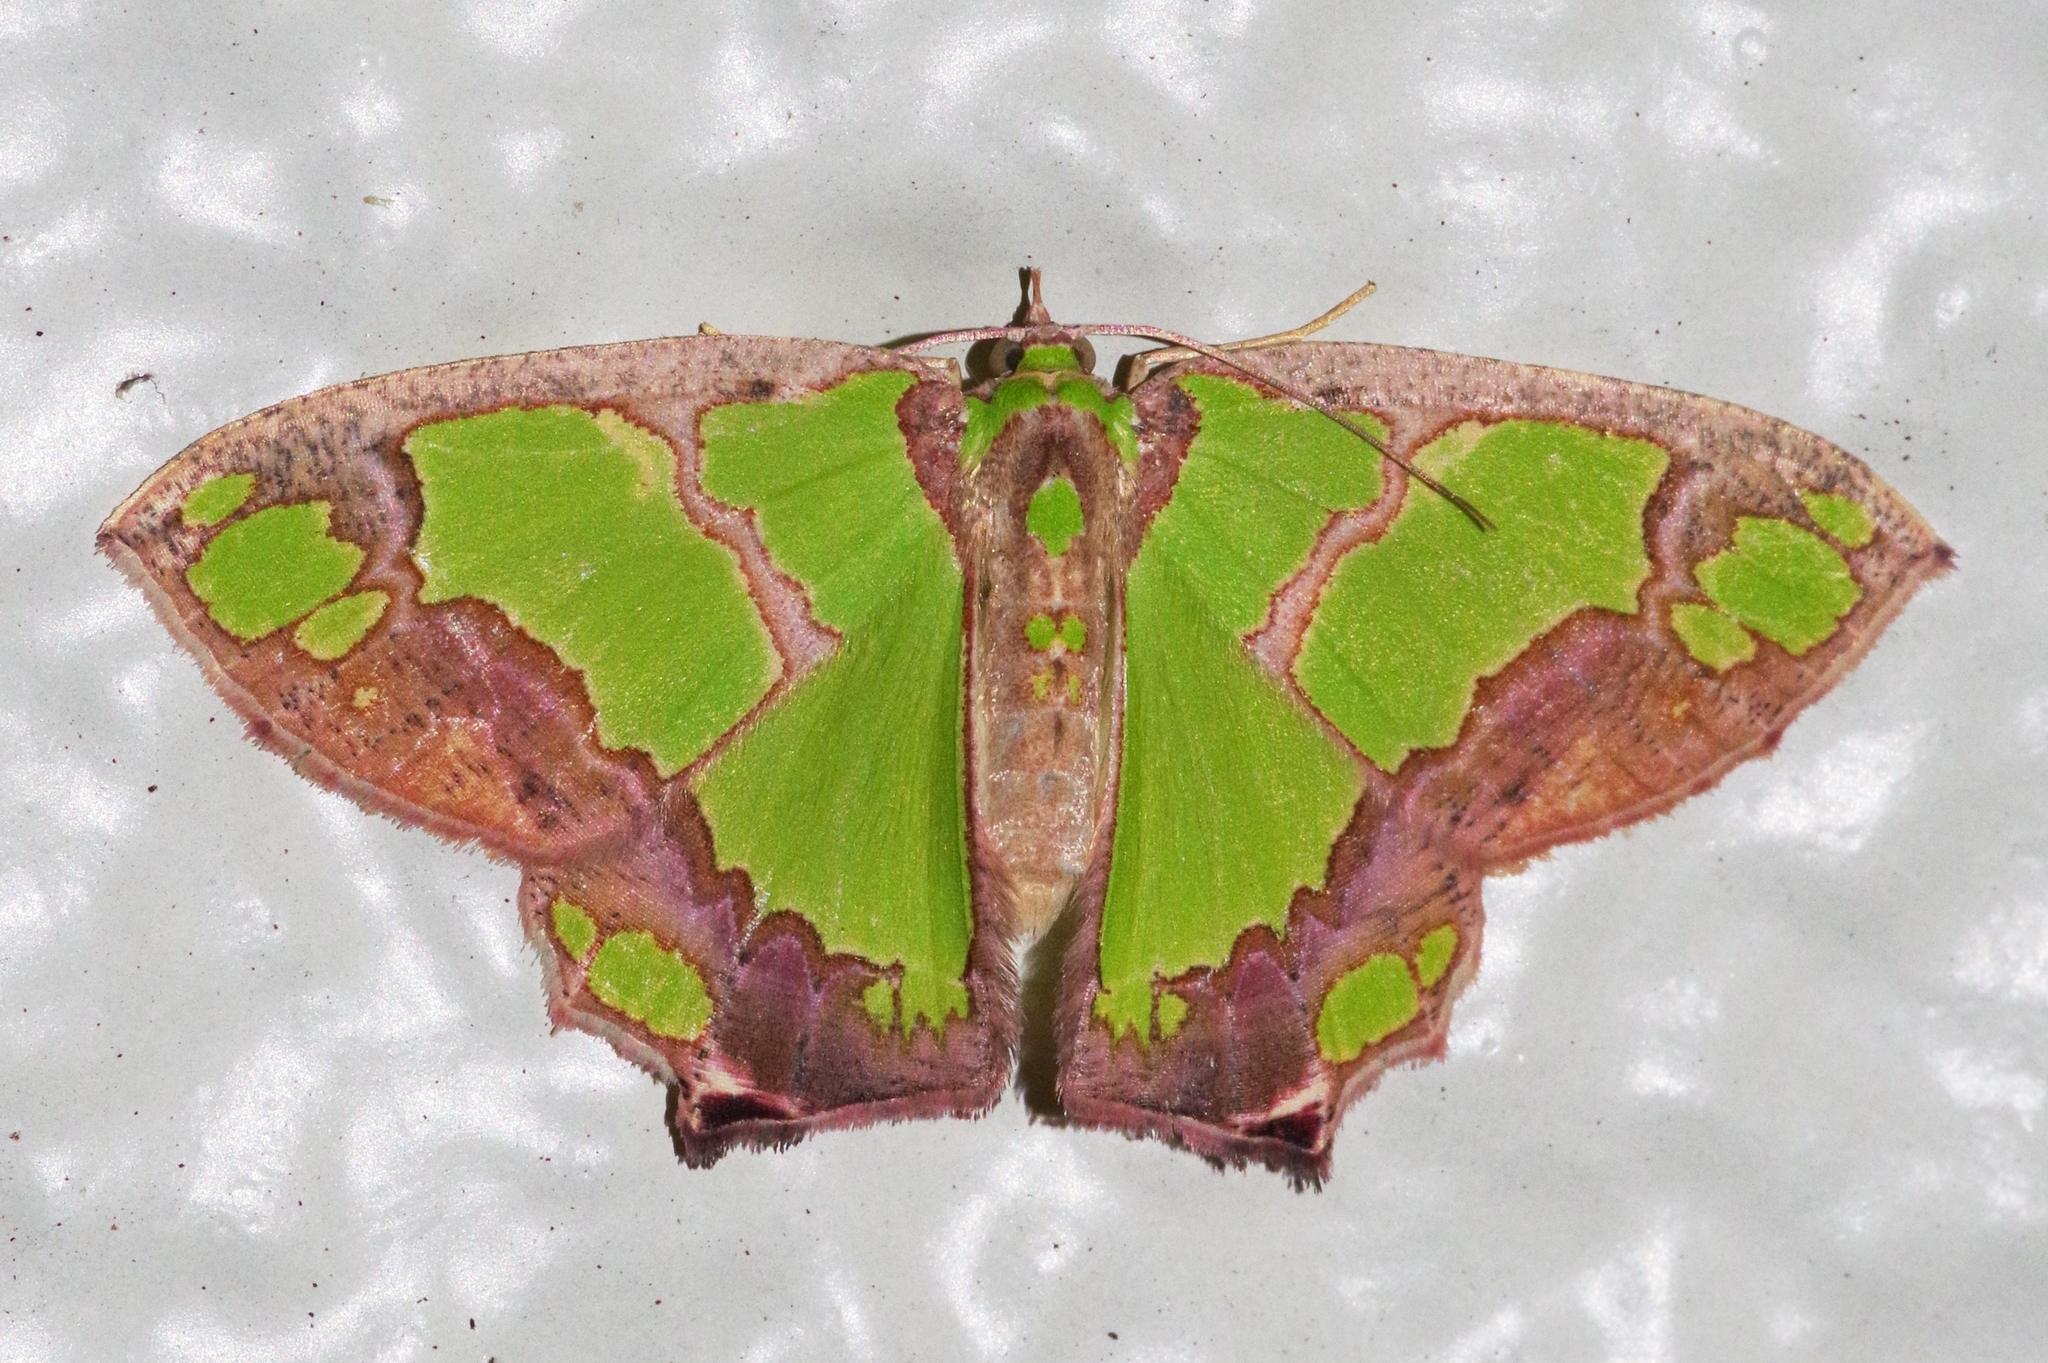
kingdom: Animalia
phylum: Arthropoda
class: Insecta
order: Lepidoptera
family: Geometridae
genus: Agathia
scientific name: Agathia visenda
